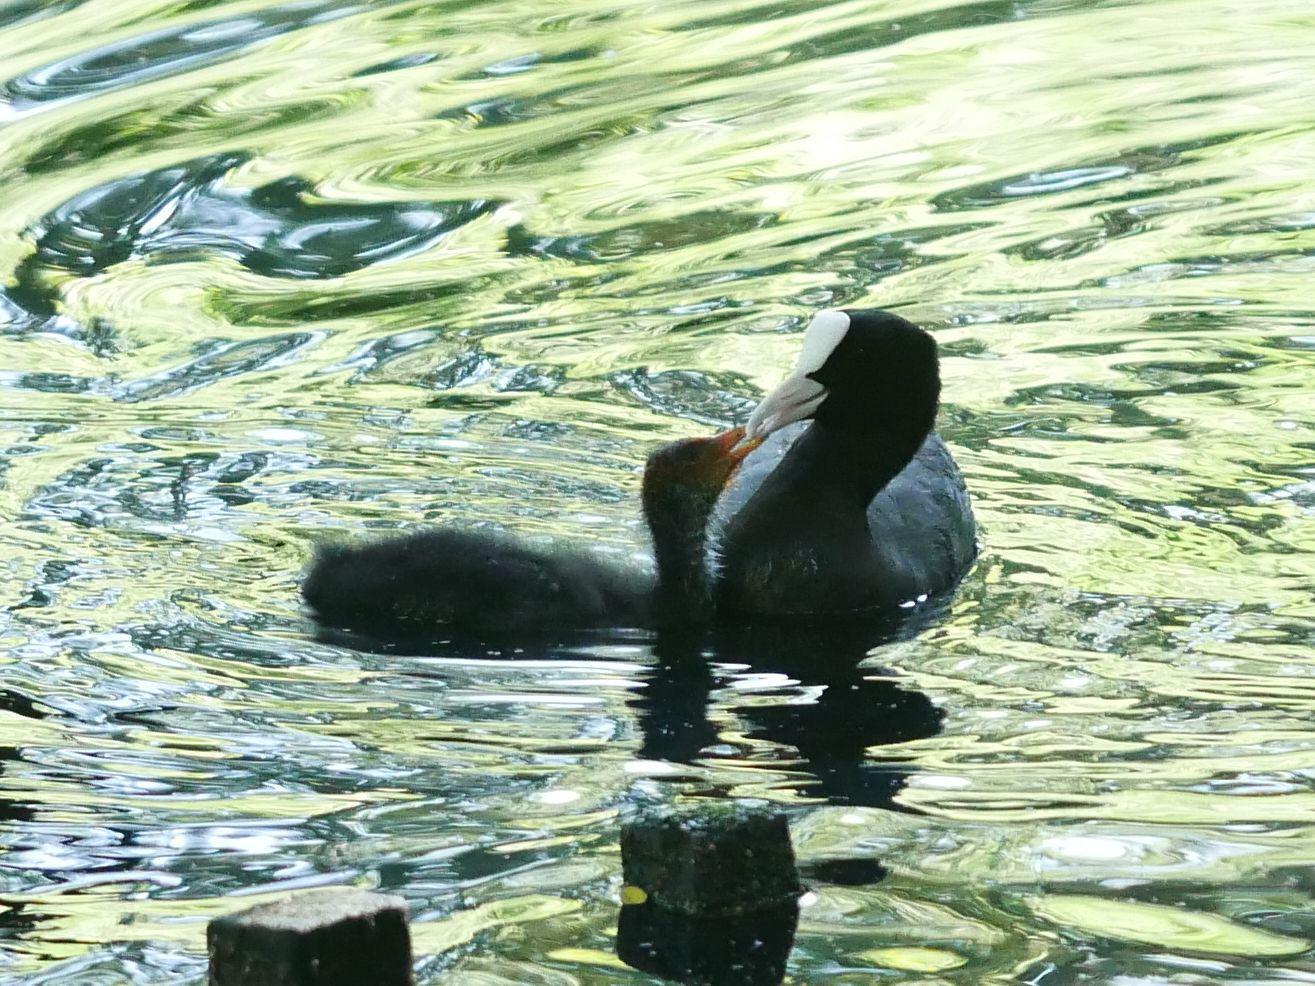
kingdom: Animalia
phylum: Chordata
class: Aves
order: Gruiformes
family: Rallidae
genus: Fulica
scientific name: Fulica atra
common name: Eurasian coot
